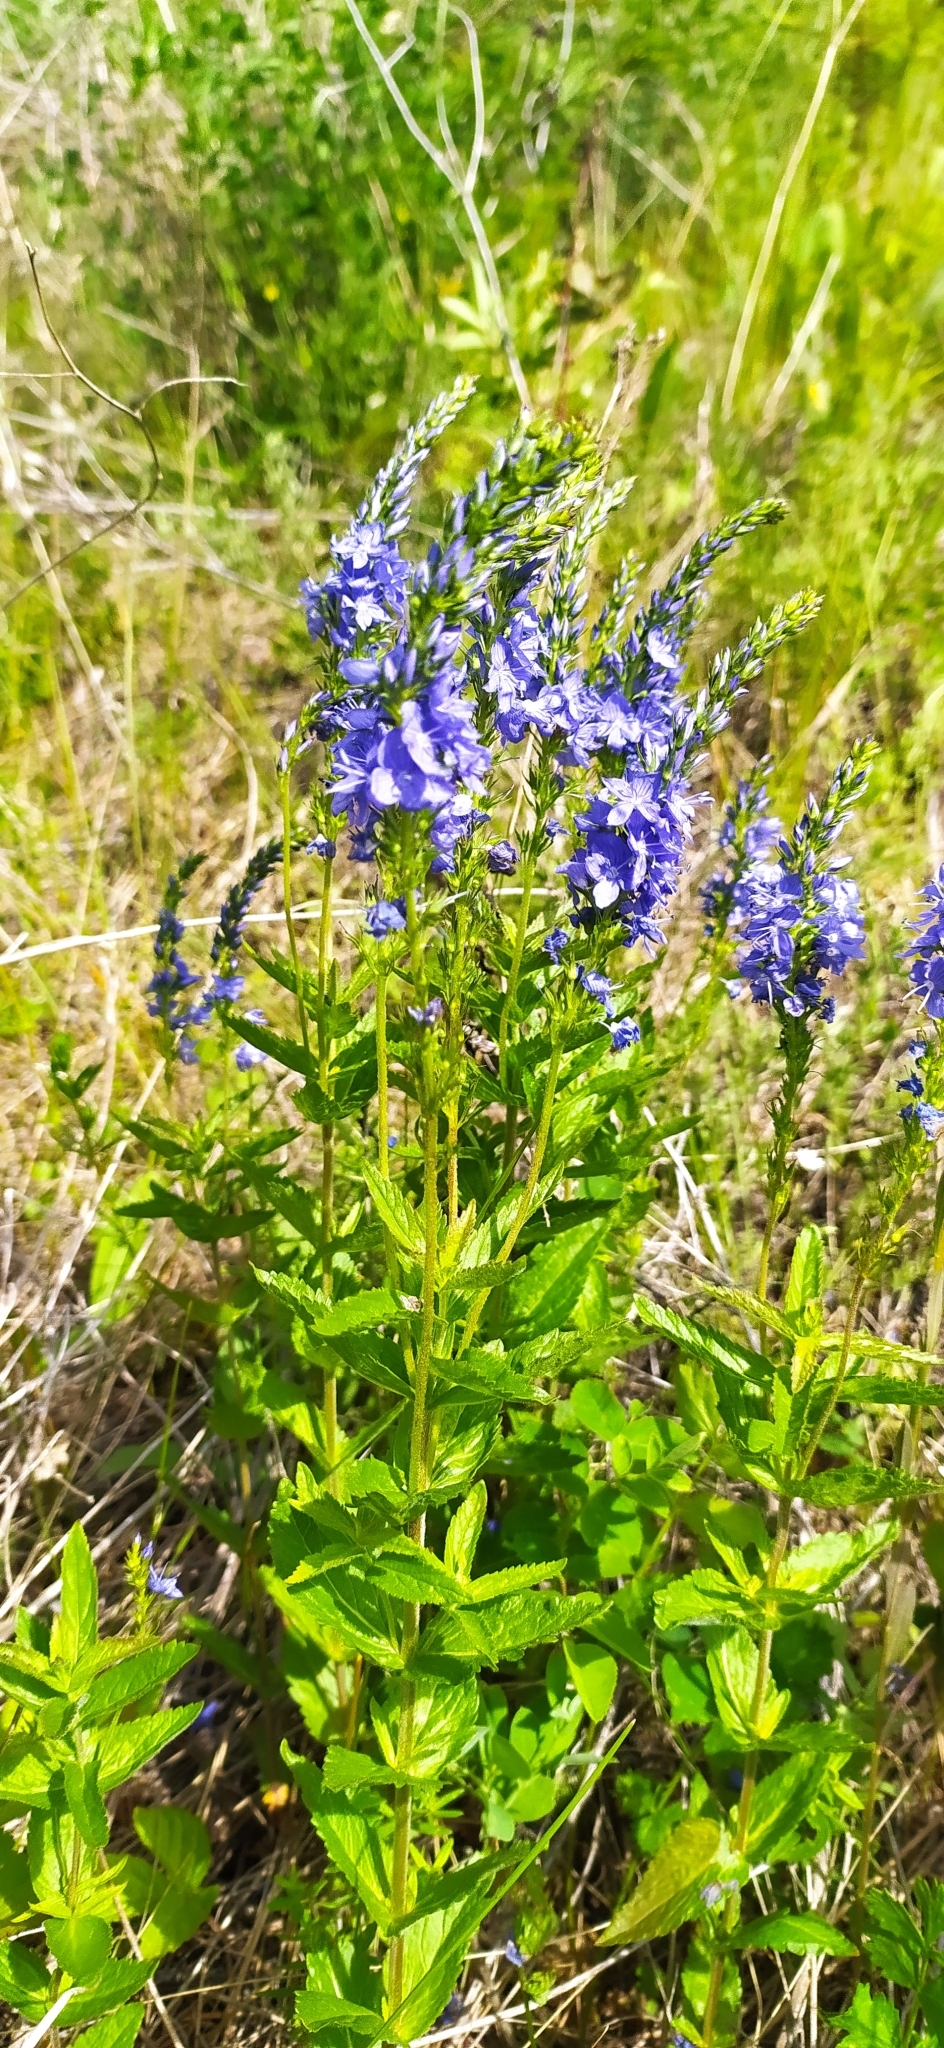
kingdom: Plantae
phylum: Tracheophyta
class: Magnoliopsida
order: Lamiales
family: Plantaginaceae
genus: Veronica
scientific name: Veronica teucrium
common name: Large speedwell
